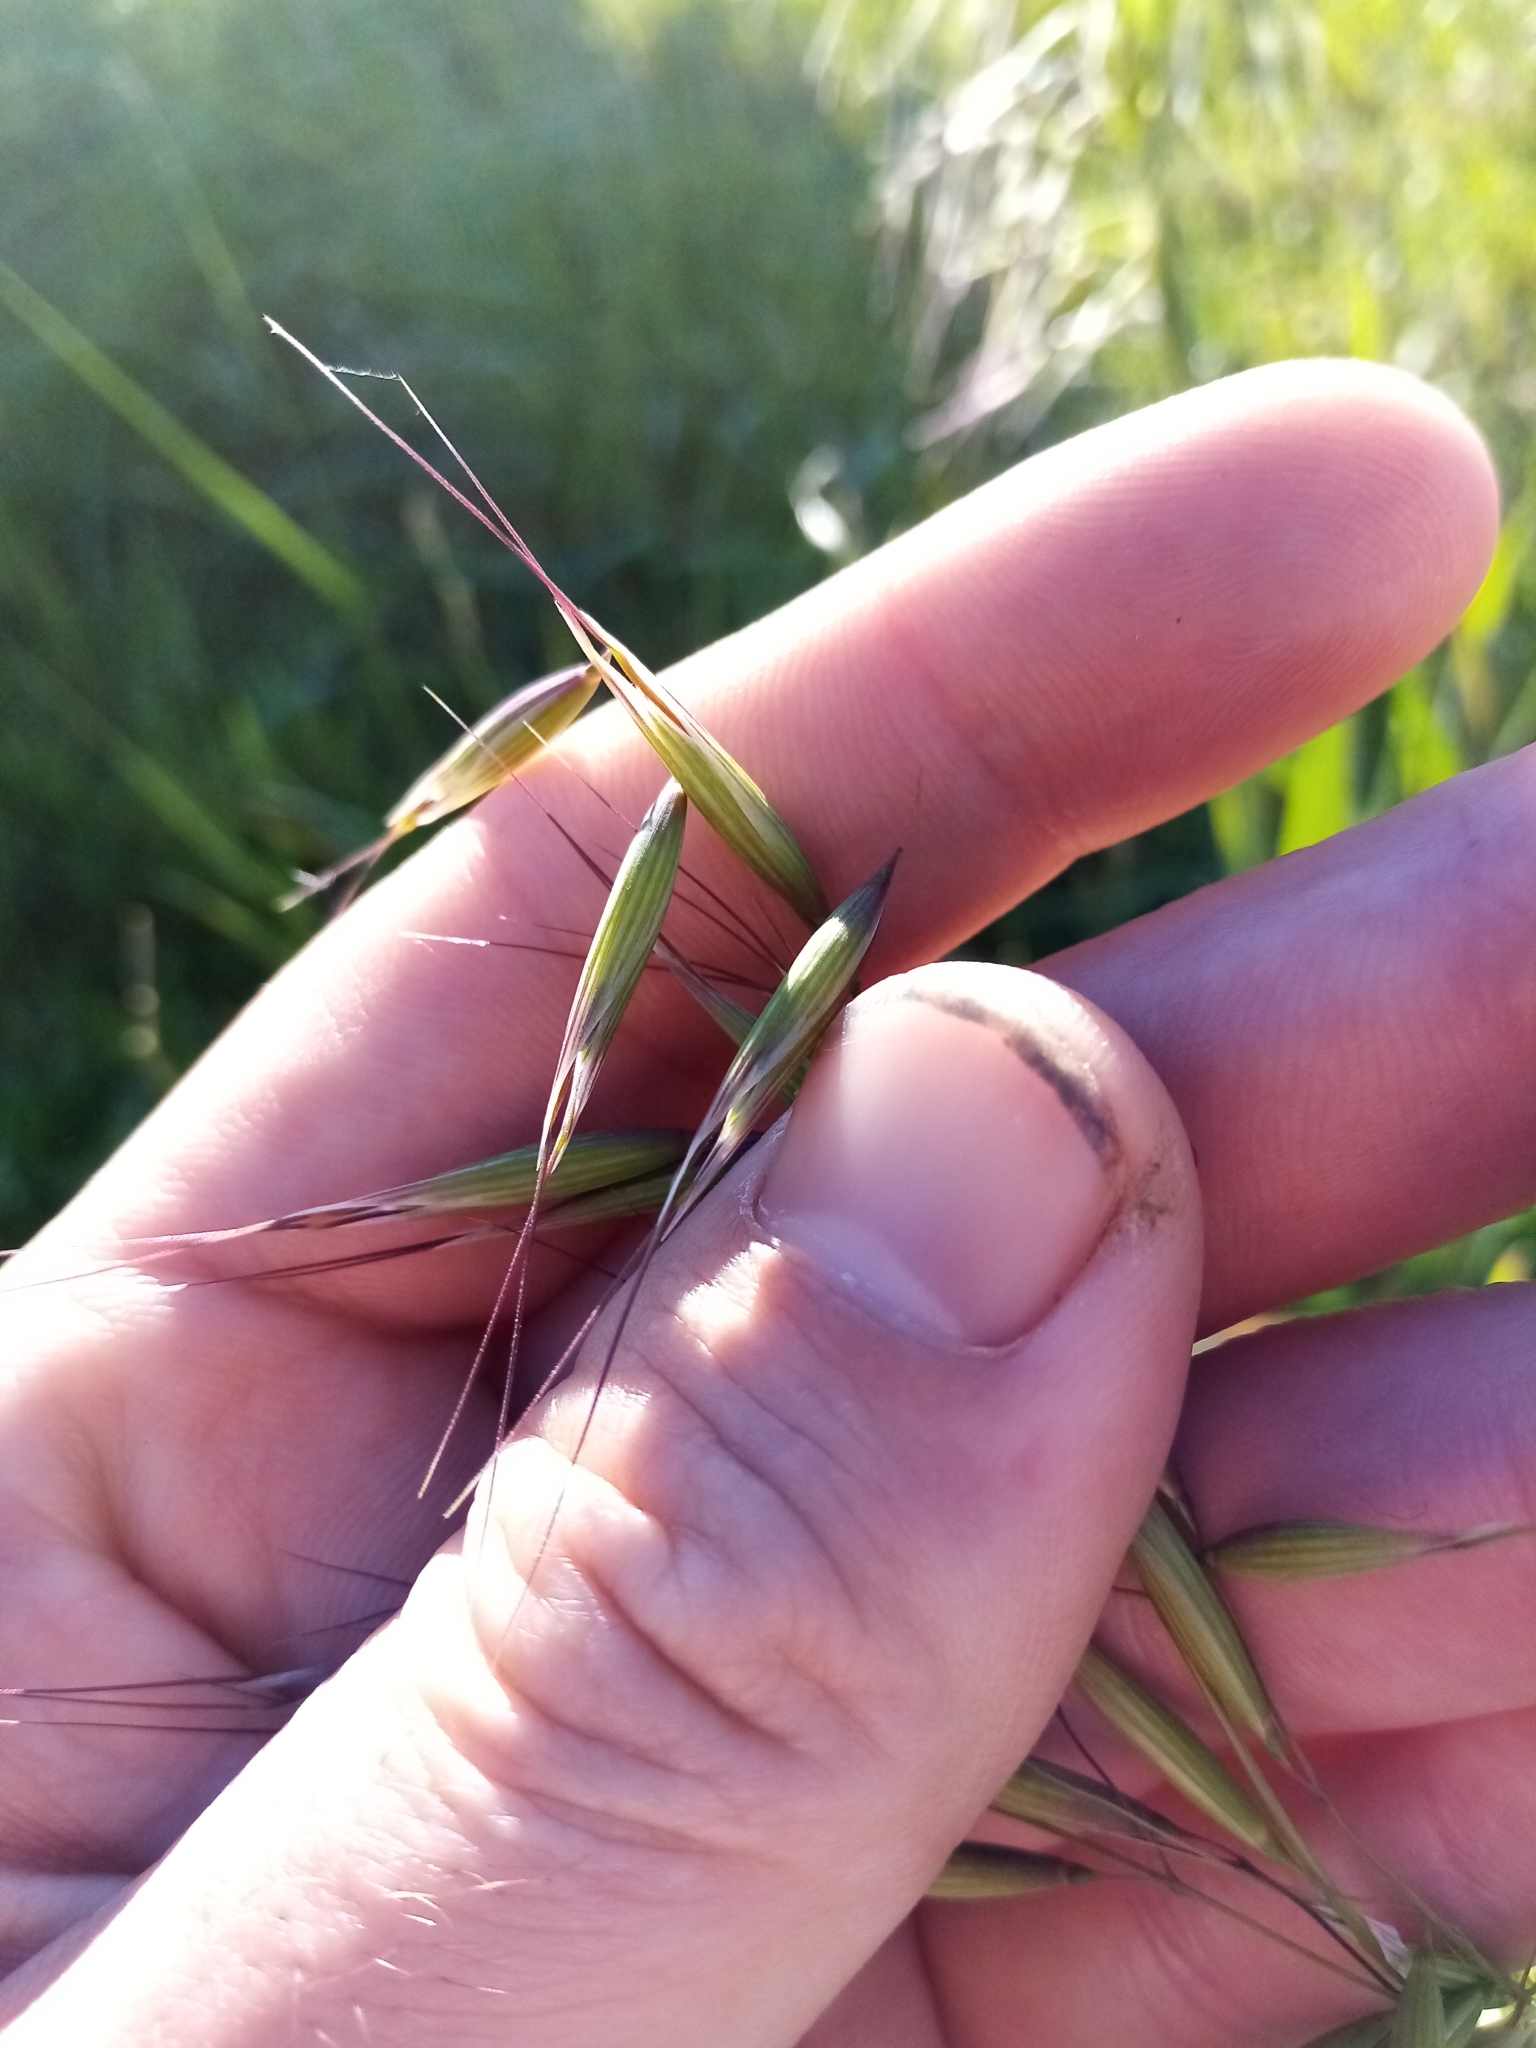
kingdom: Plantae
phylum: Tracheophyta
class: Liliopsida
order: Poales
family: Poaceae
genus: Avena
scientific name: Avena fatua
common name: Wild oat
